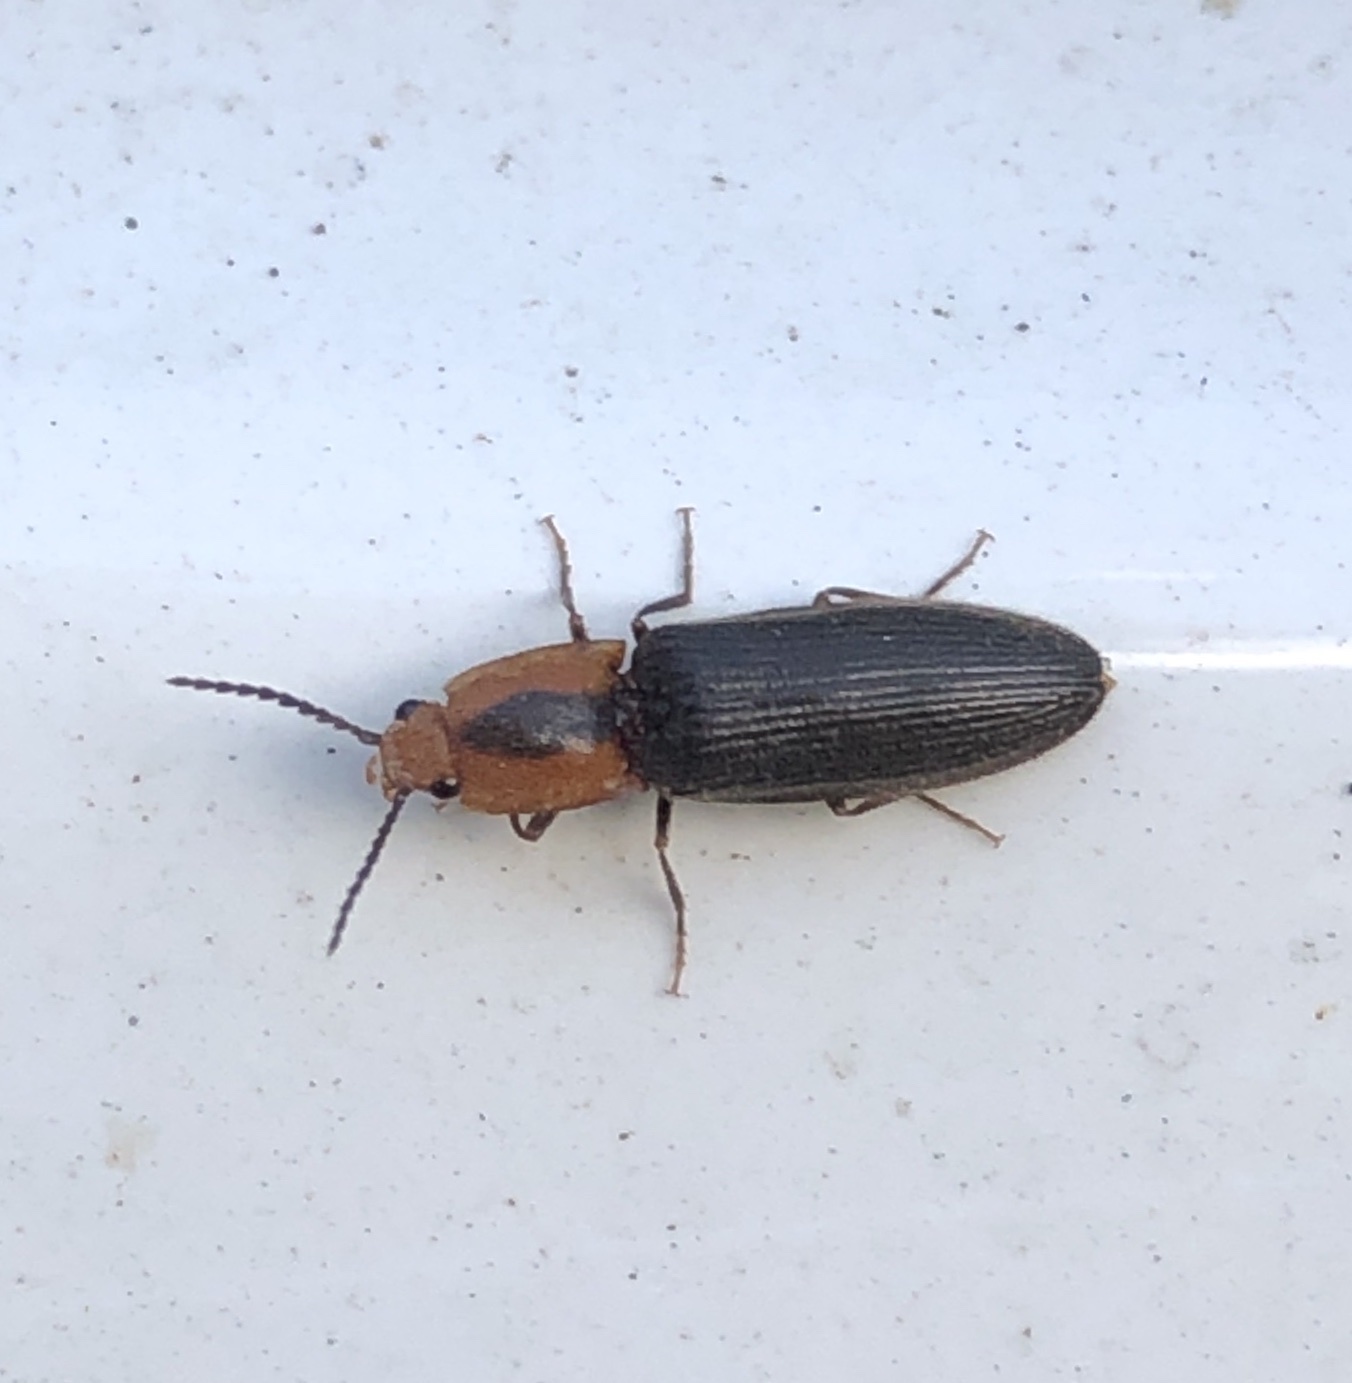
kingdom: Animalia
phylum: Arthropoda
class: Insecta
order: Coleoptera
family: Elateridae
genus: Athous
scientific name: Athous
